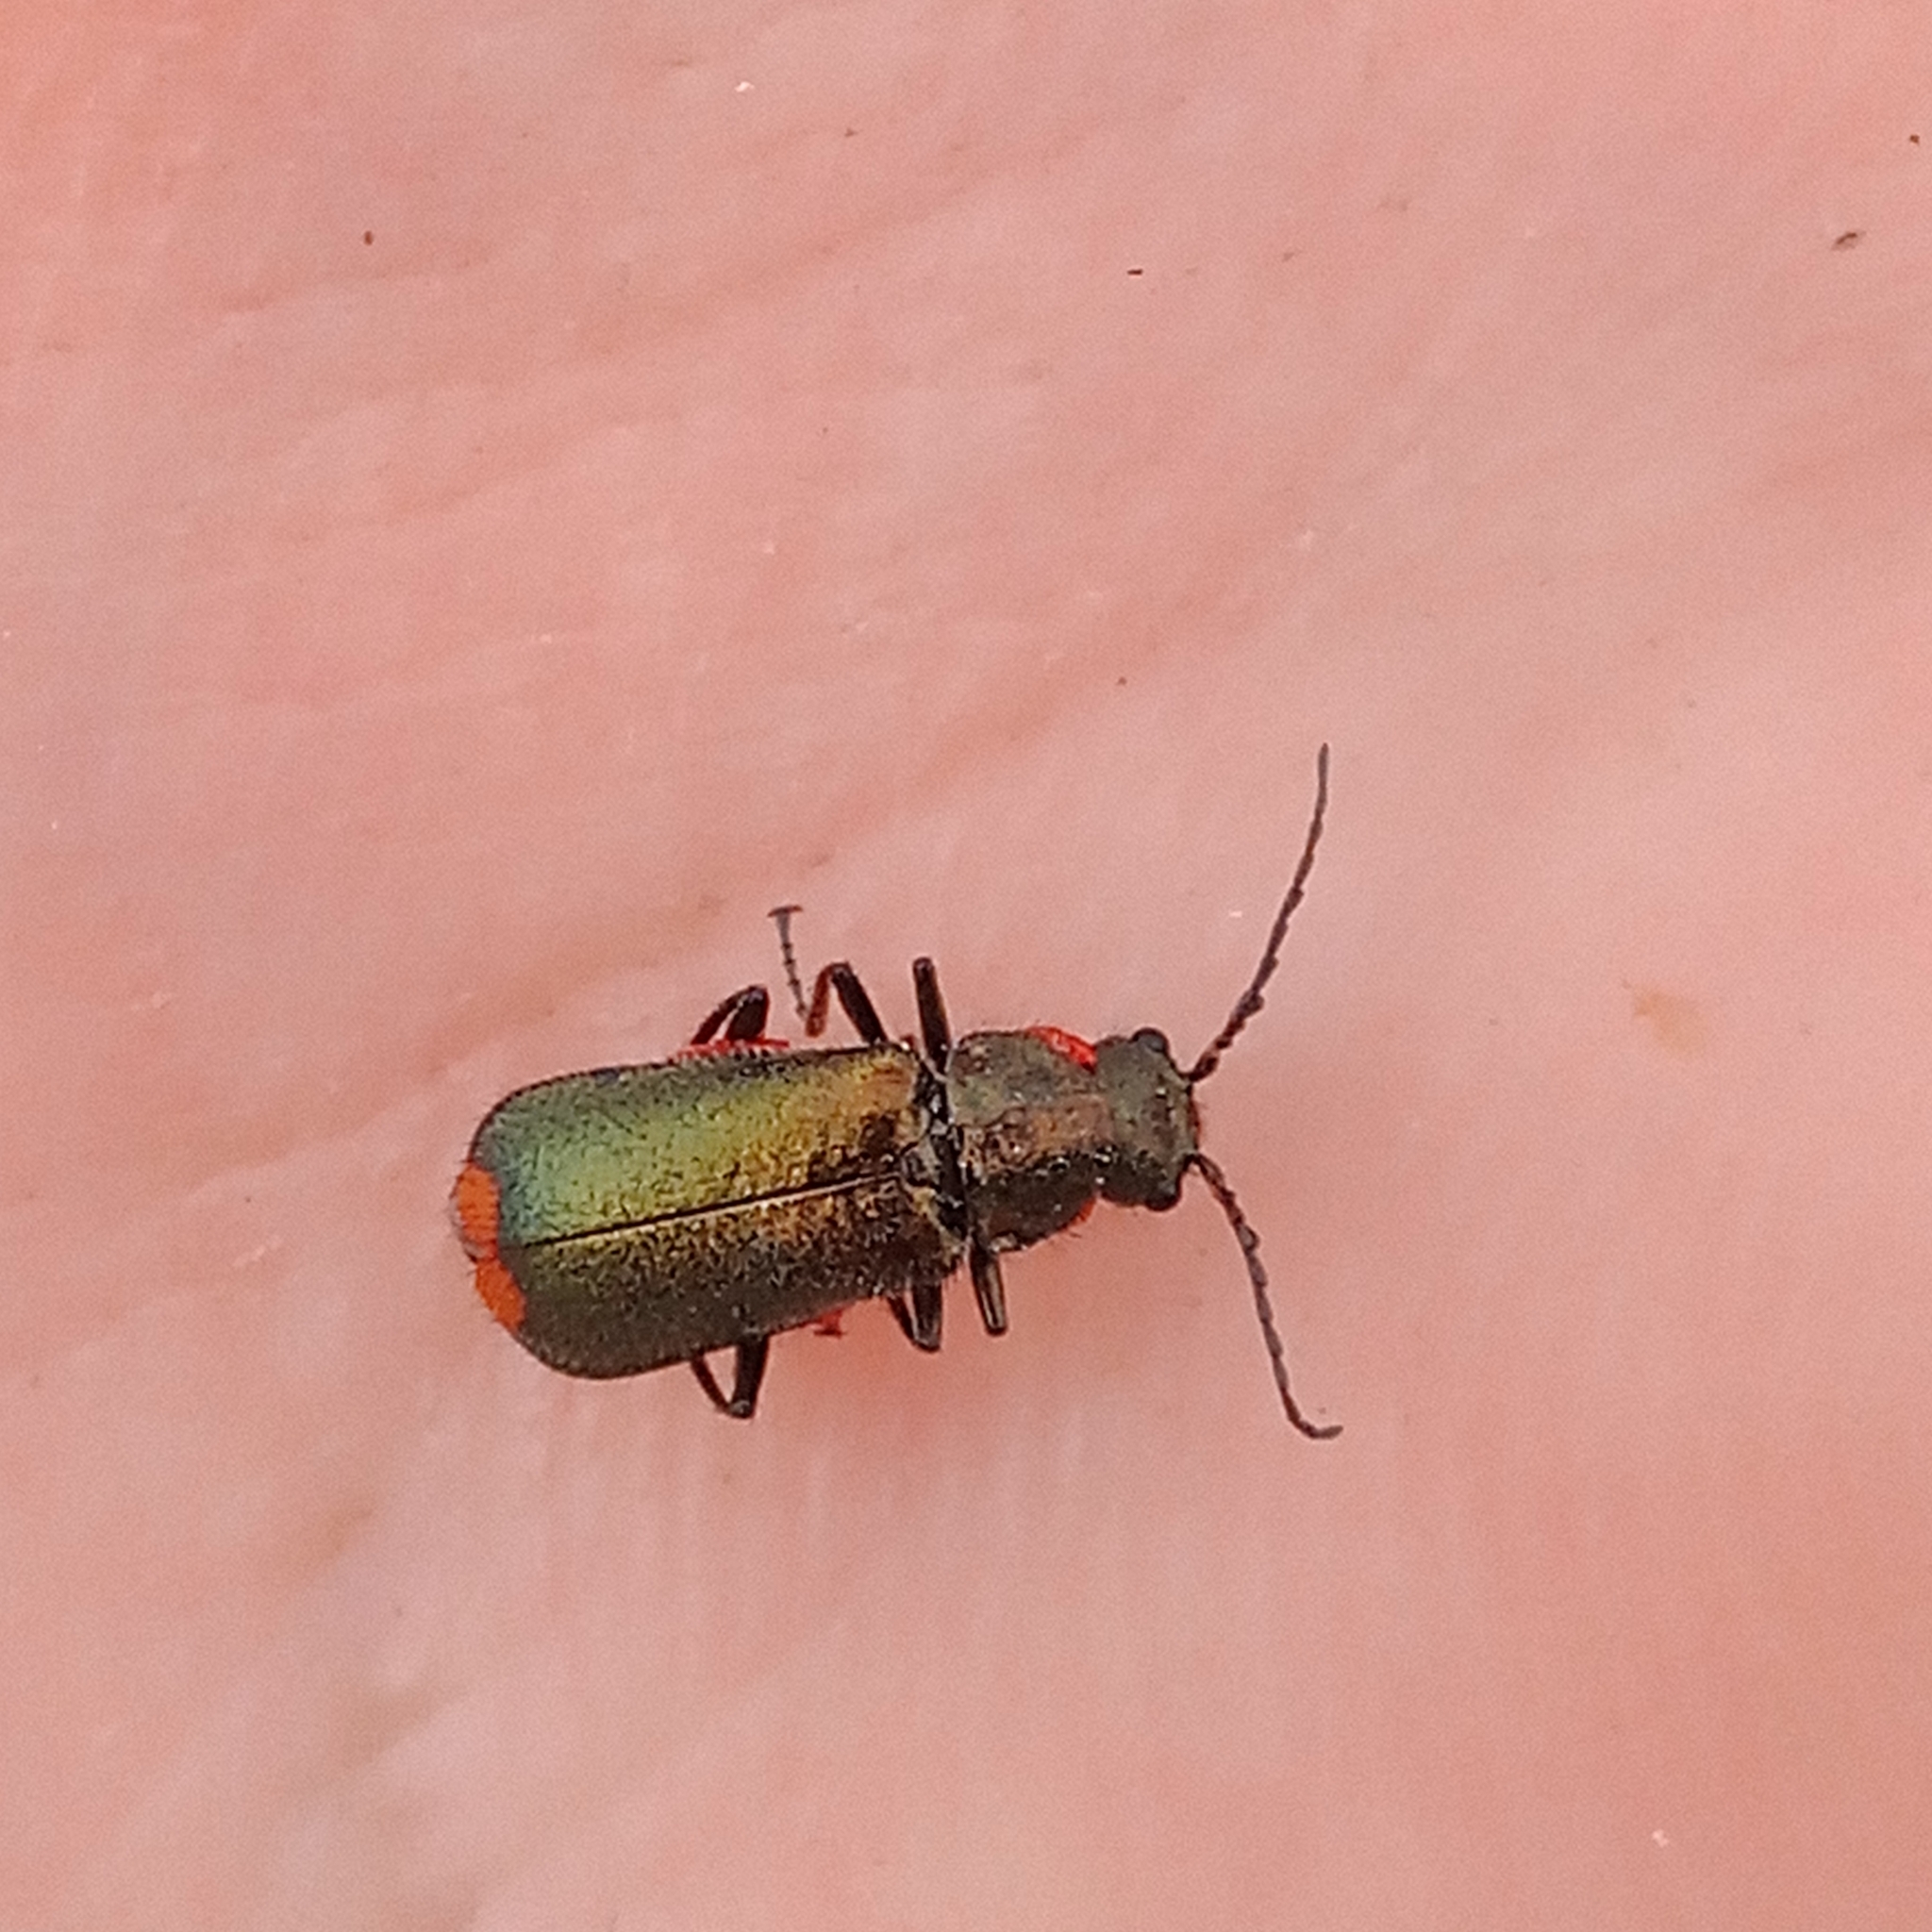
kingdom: Animalia
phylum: Arthropoda
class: Insecta
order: Coleoptera
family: Melyridae
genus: Malachius
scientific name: Malachius bipustulatus
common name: Malachite beetle
